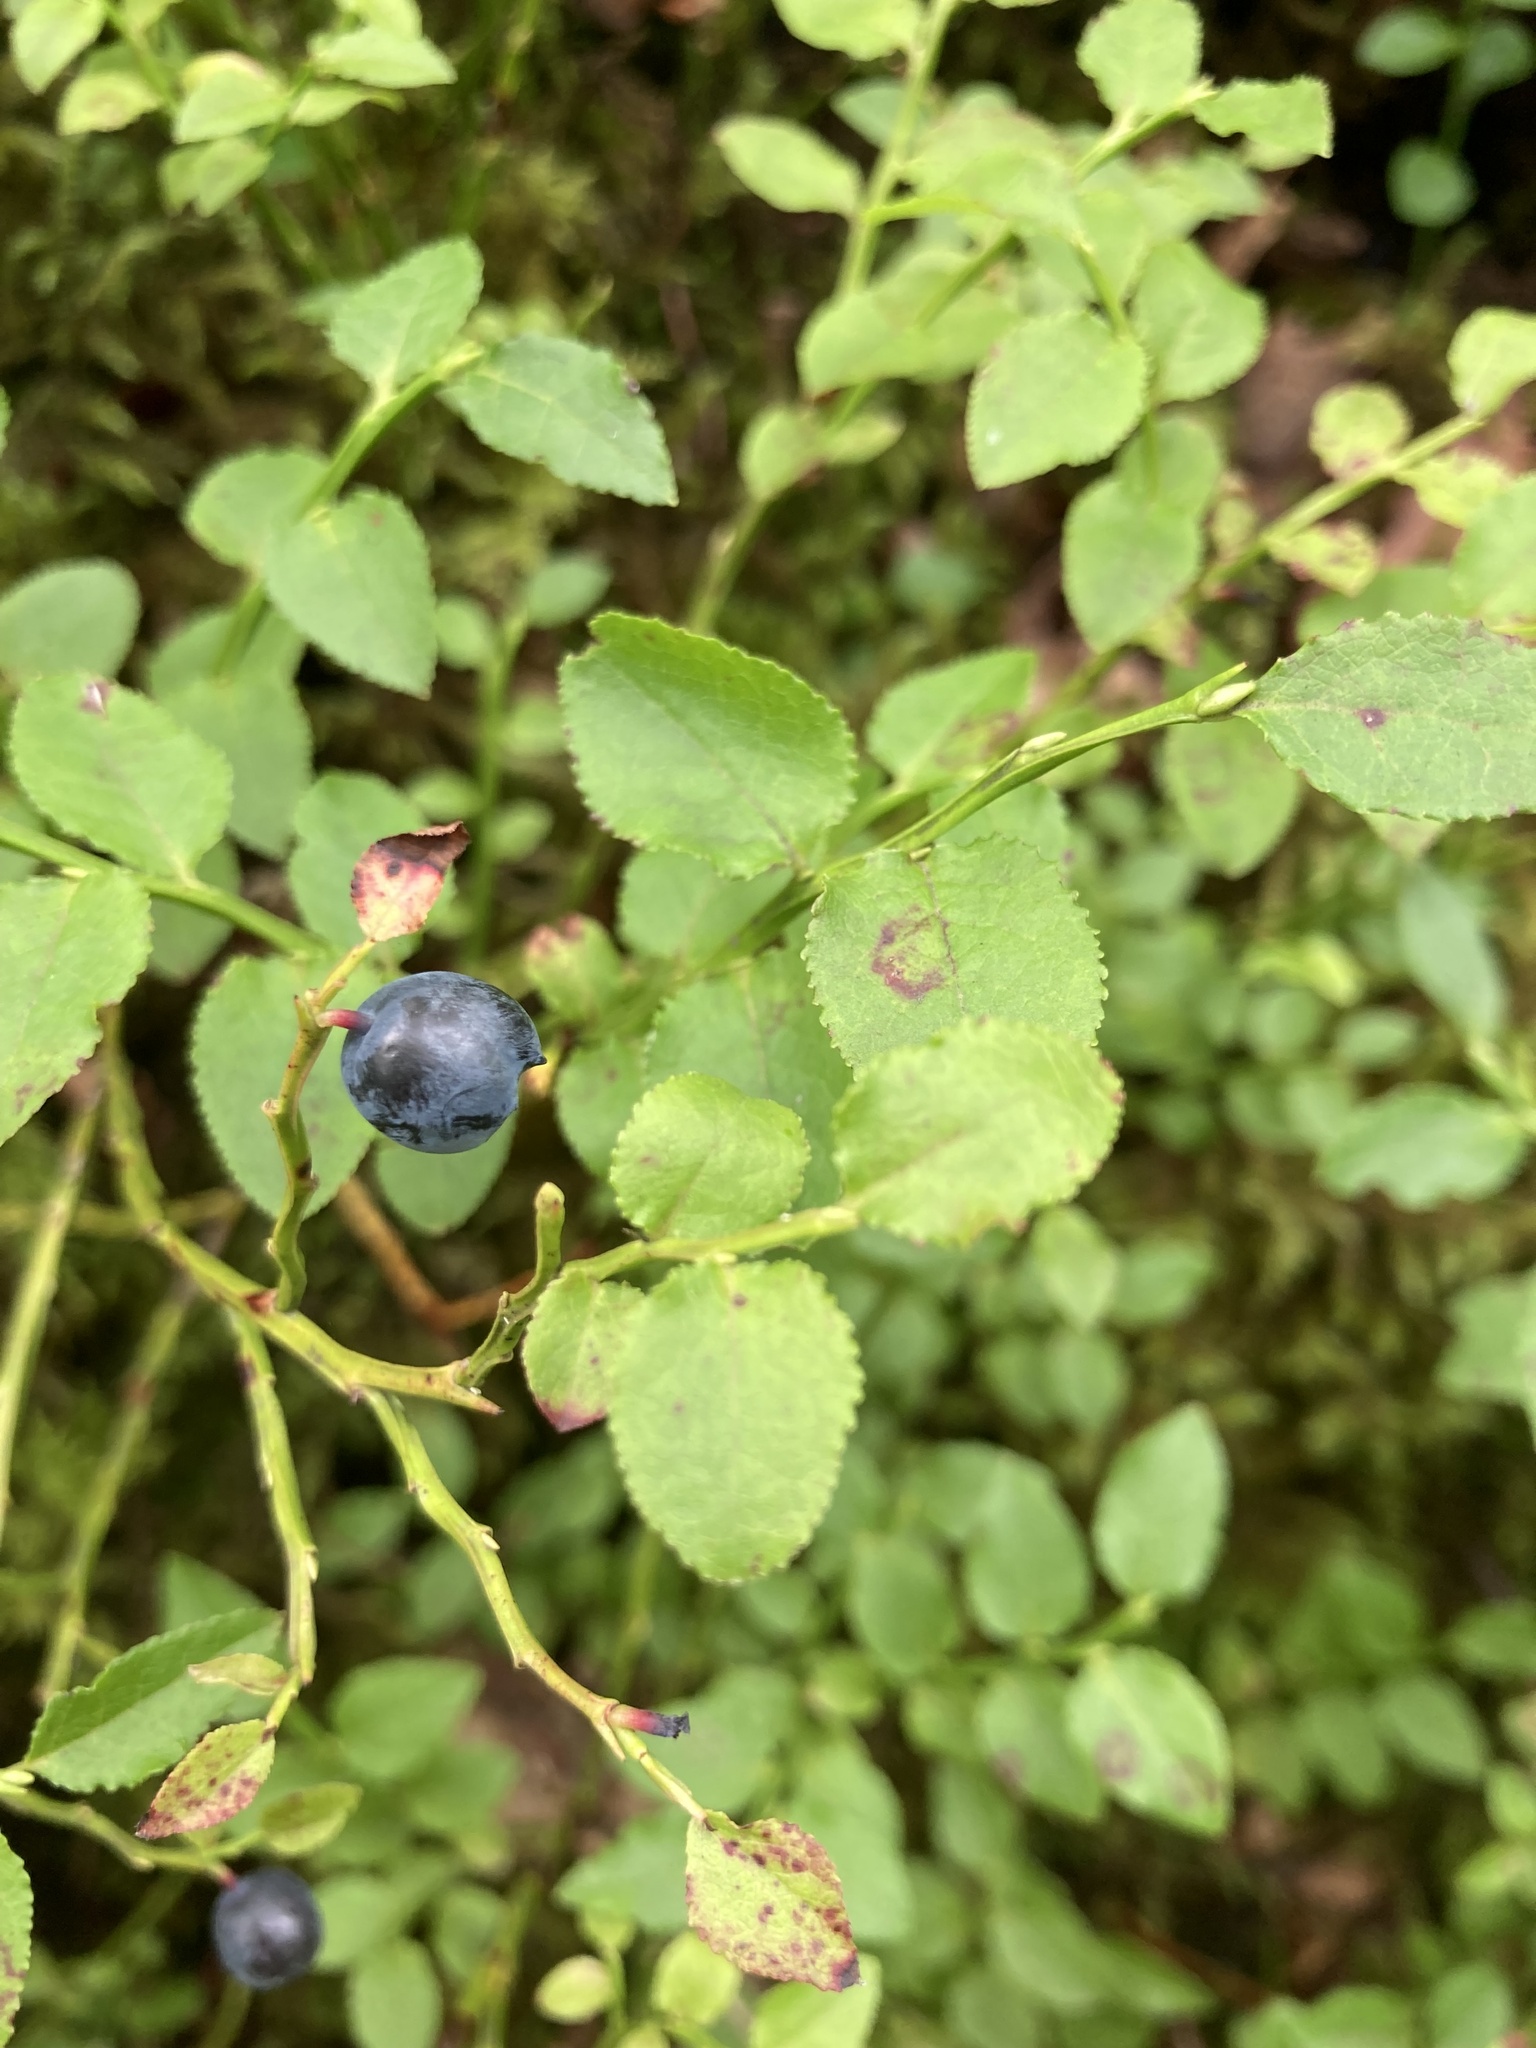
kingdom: Plantae
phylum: Tracheophyta
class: Magnoliopsida
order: Ericales
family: Ericaceae
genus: Vaccinium
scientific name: Vaccinium myrtillus
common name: Bilberry
